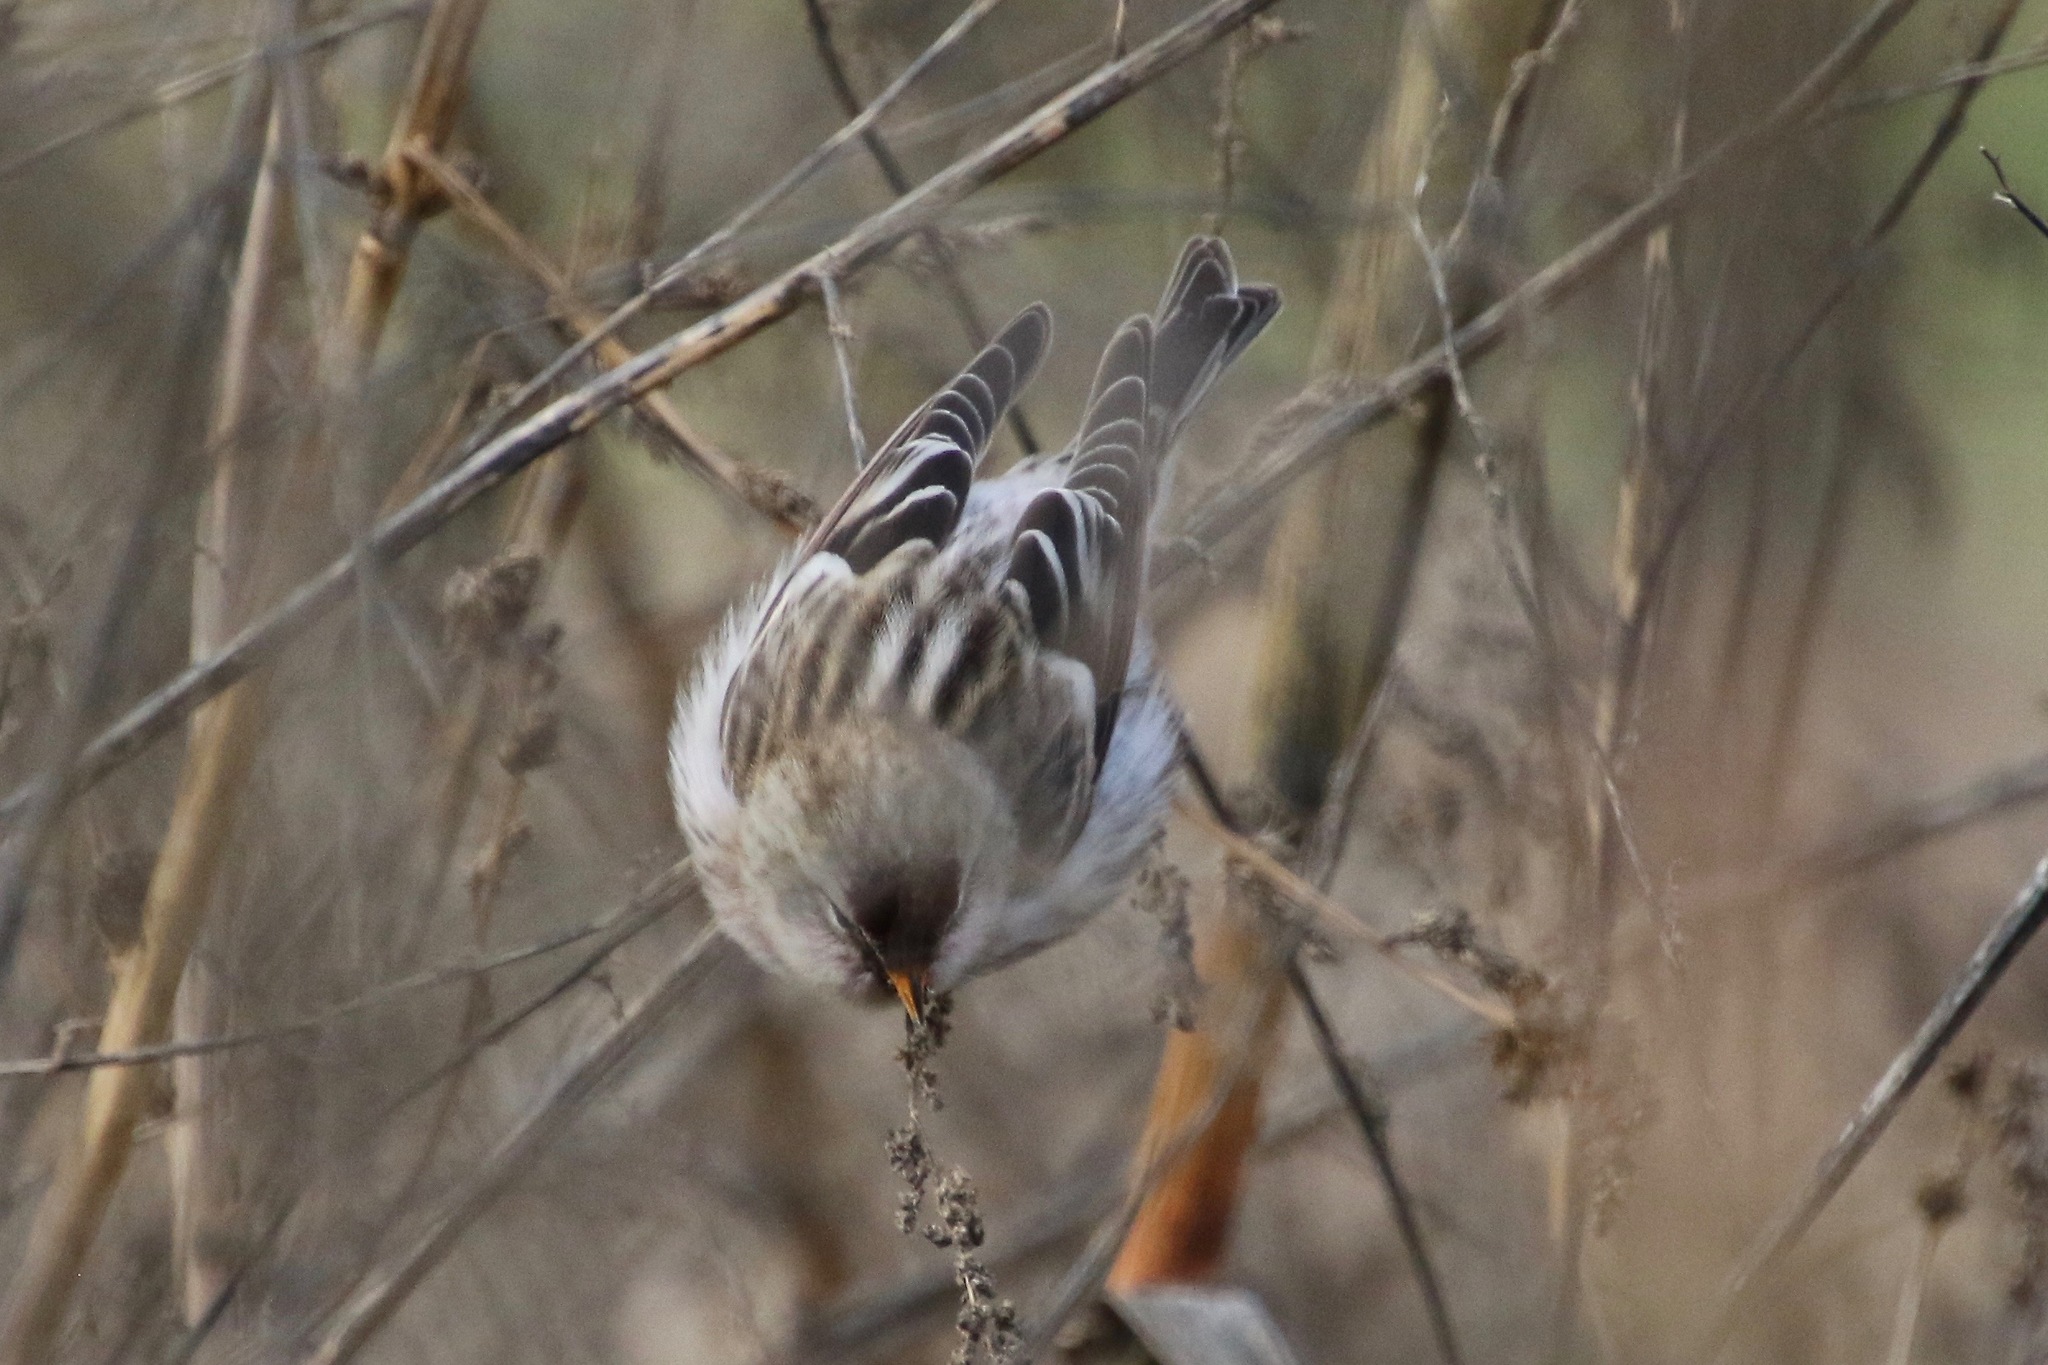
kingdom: Animalia
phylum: Chordata
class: Aves
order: Passeriformes
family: Fringillidae
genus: Acanthis
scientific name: Acanthis flammea
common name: Common redpoll
